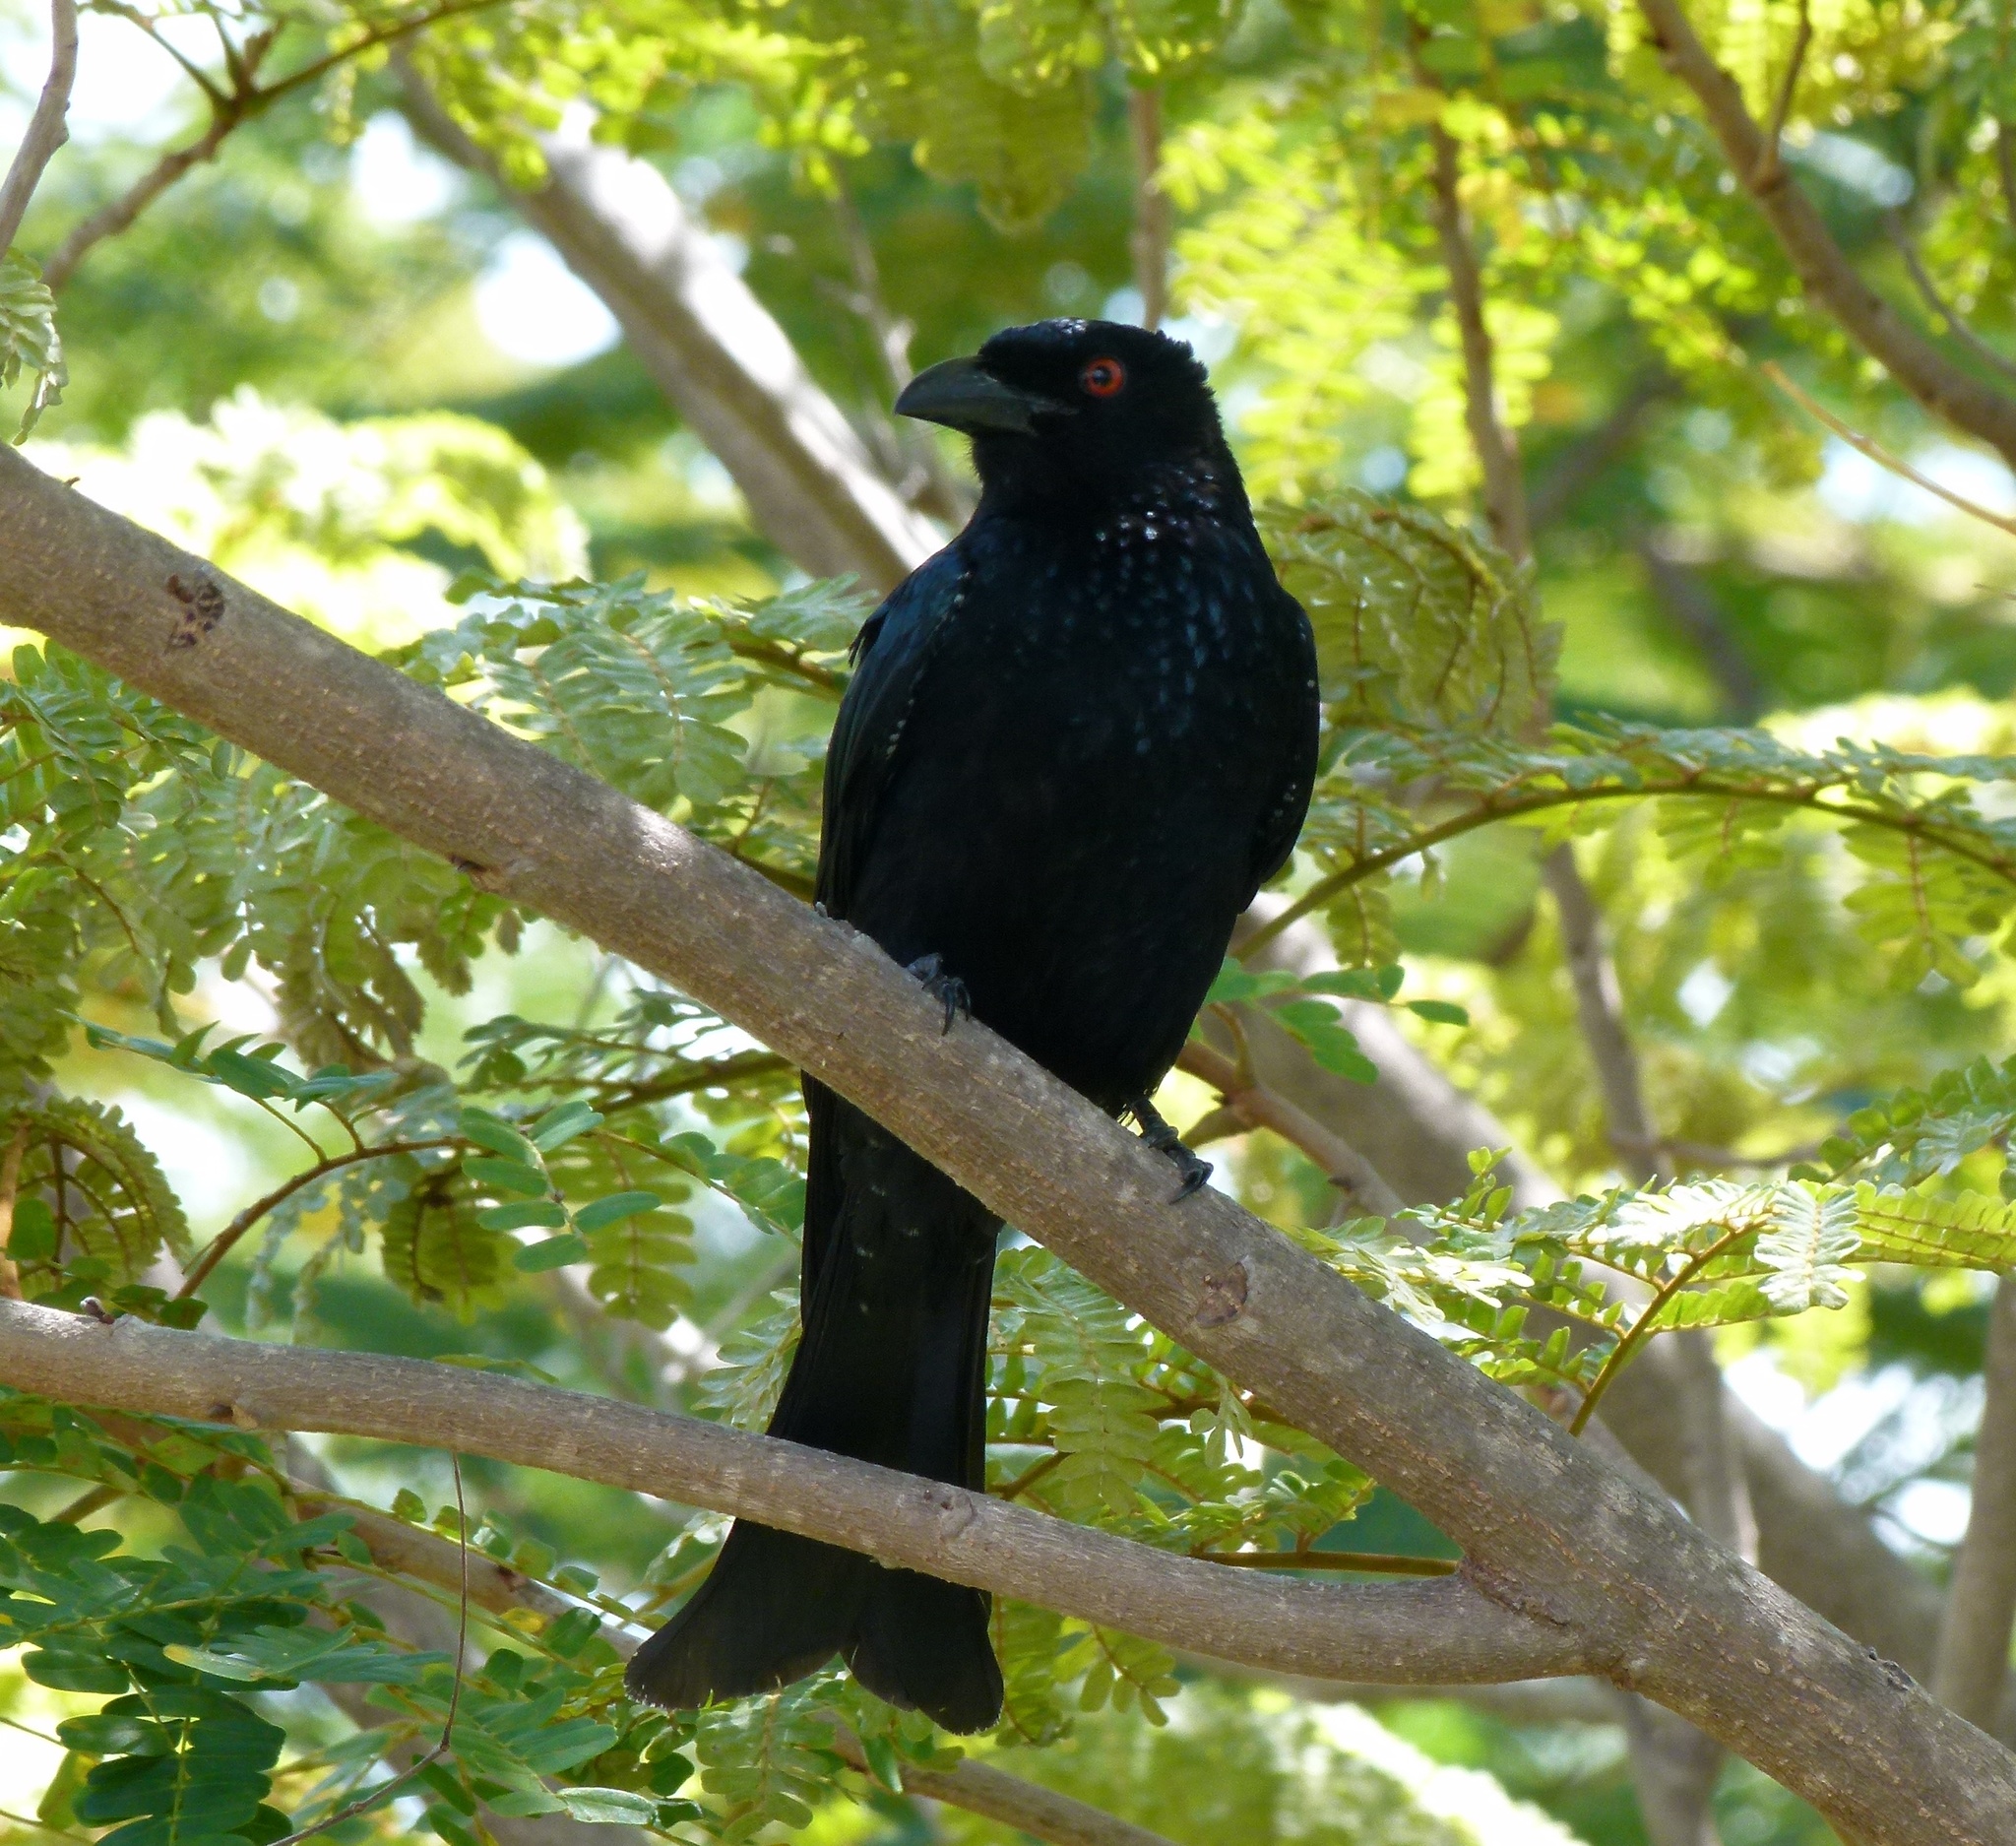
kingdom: Animalia
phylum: Chordata
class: Aves
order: Passeriformes
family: Dicruridae
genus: Dicrurus
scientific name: Dicrurus bracteatus
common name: Spangled drongo
